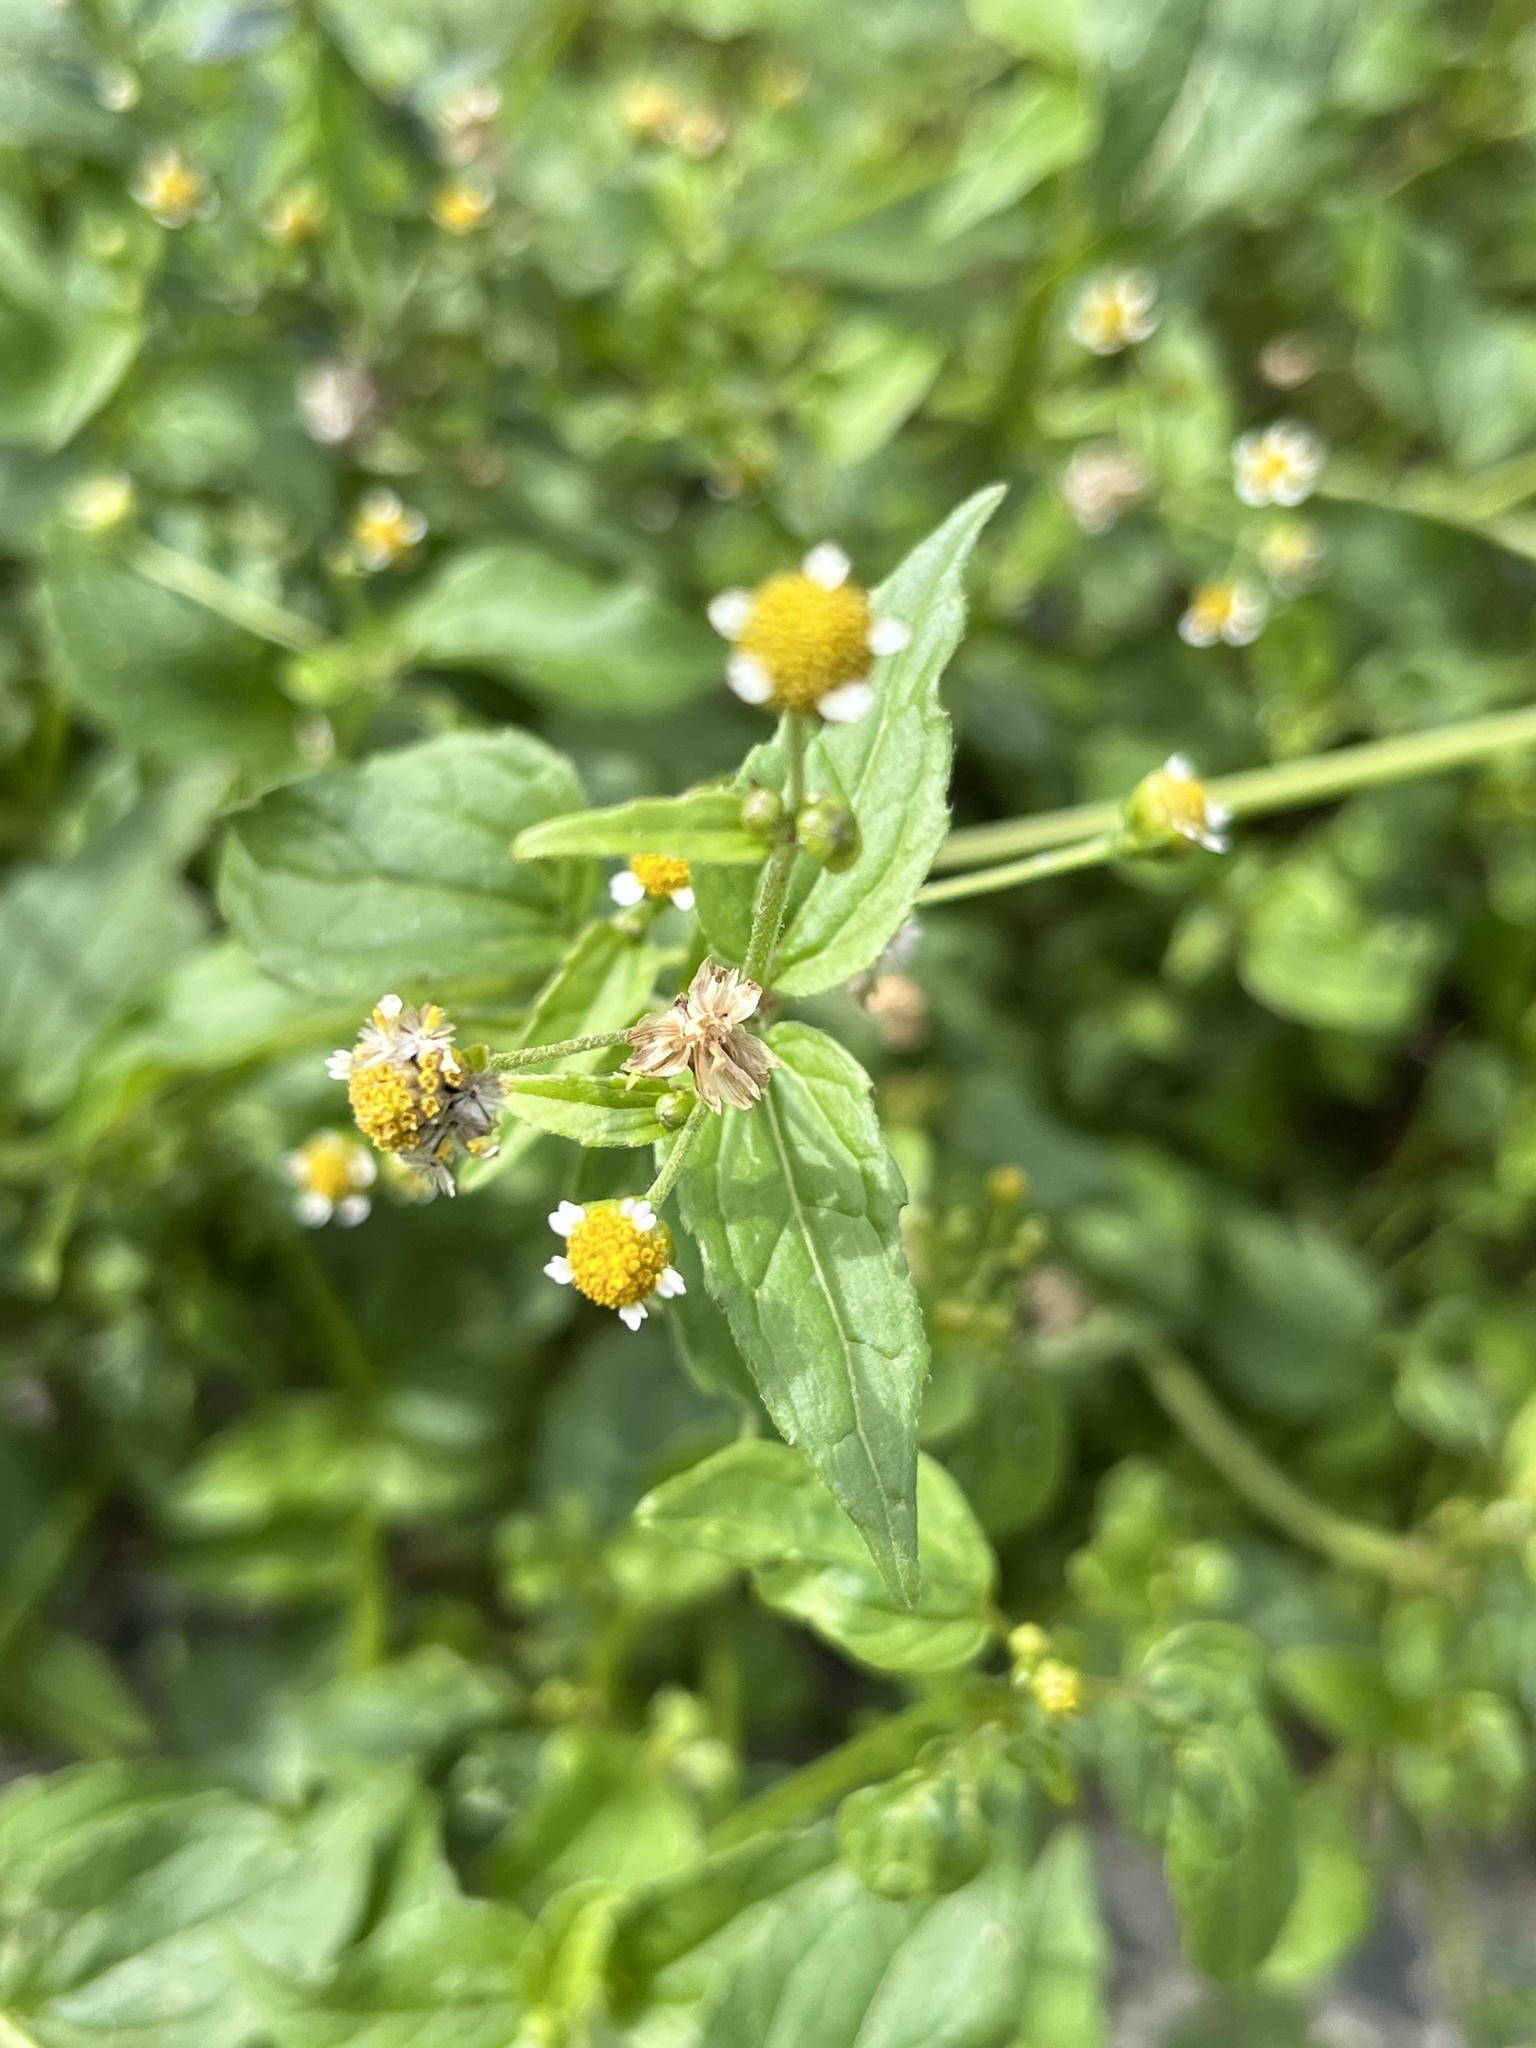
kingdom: Plantae
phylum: Tracheophyta
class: Magnoliopsida
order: Asterales
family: Asteraceae
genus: Galinsoga
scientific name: Galinsoga parviflora
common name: Gallant soldier
